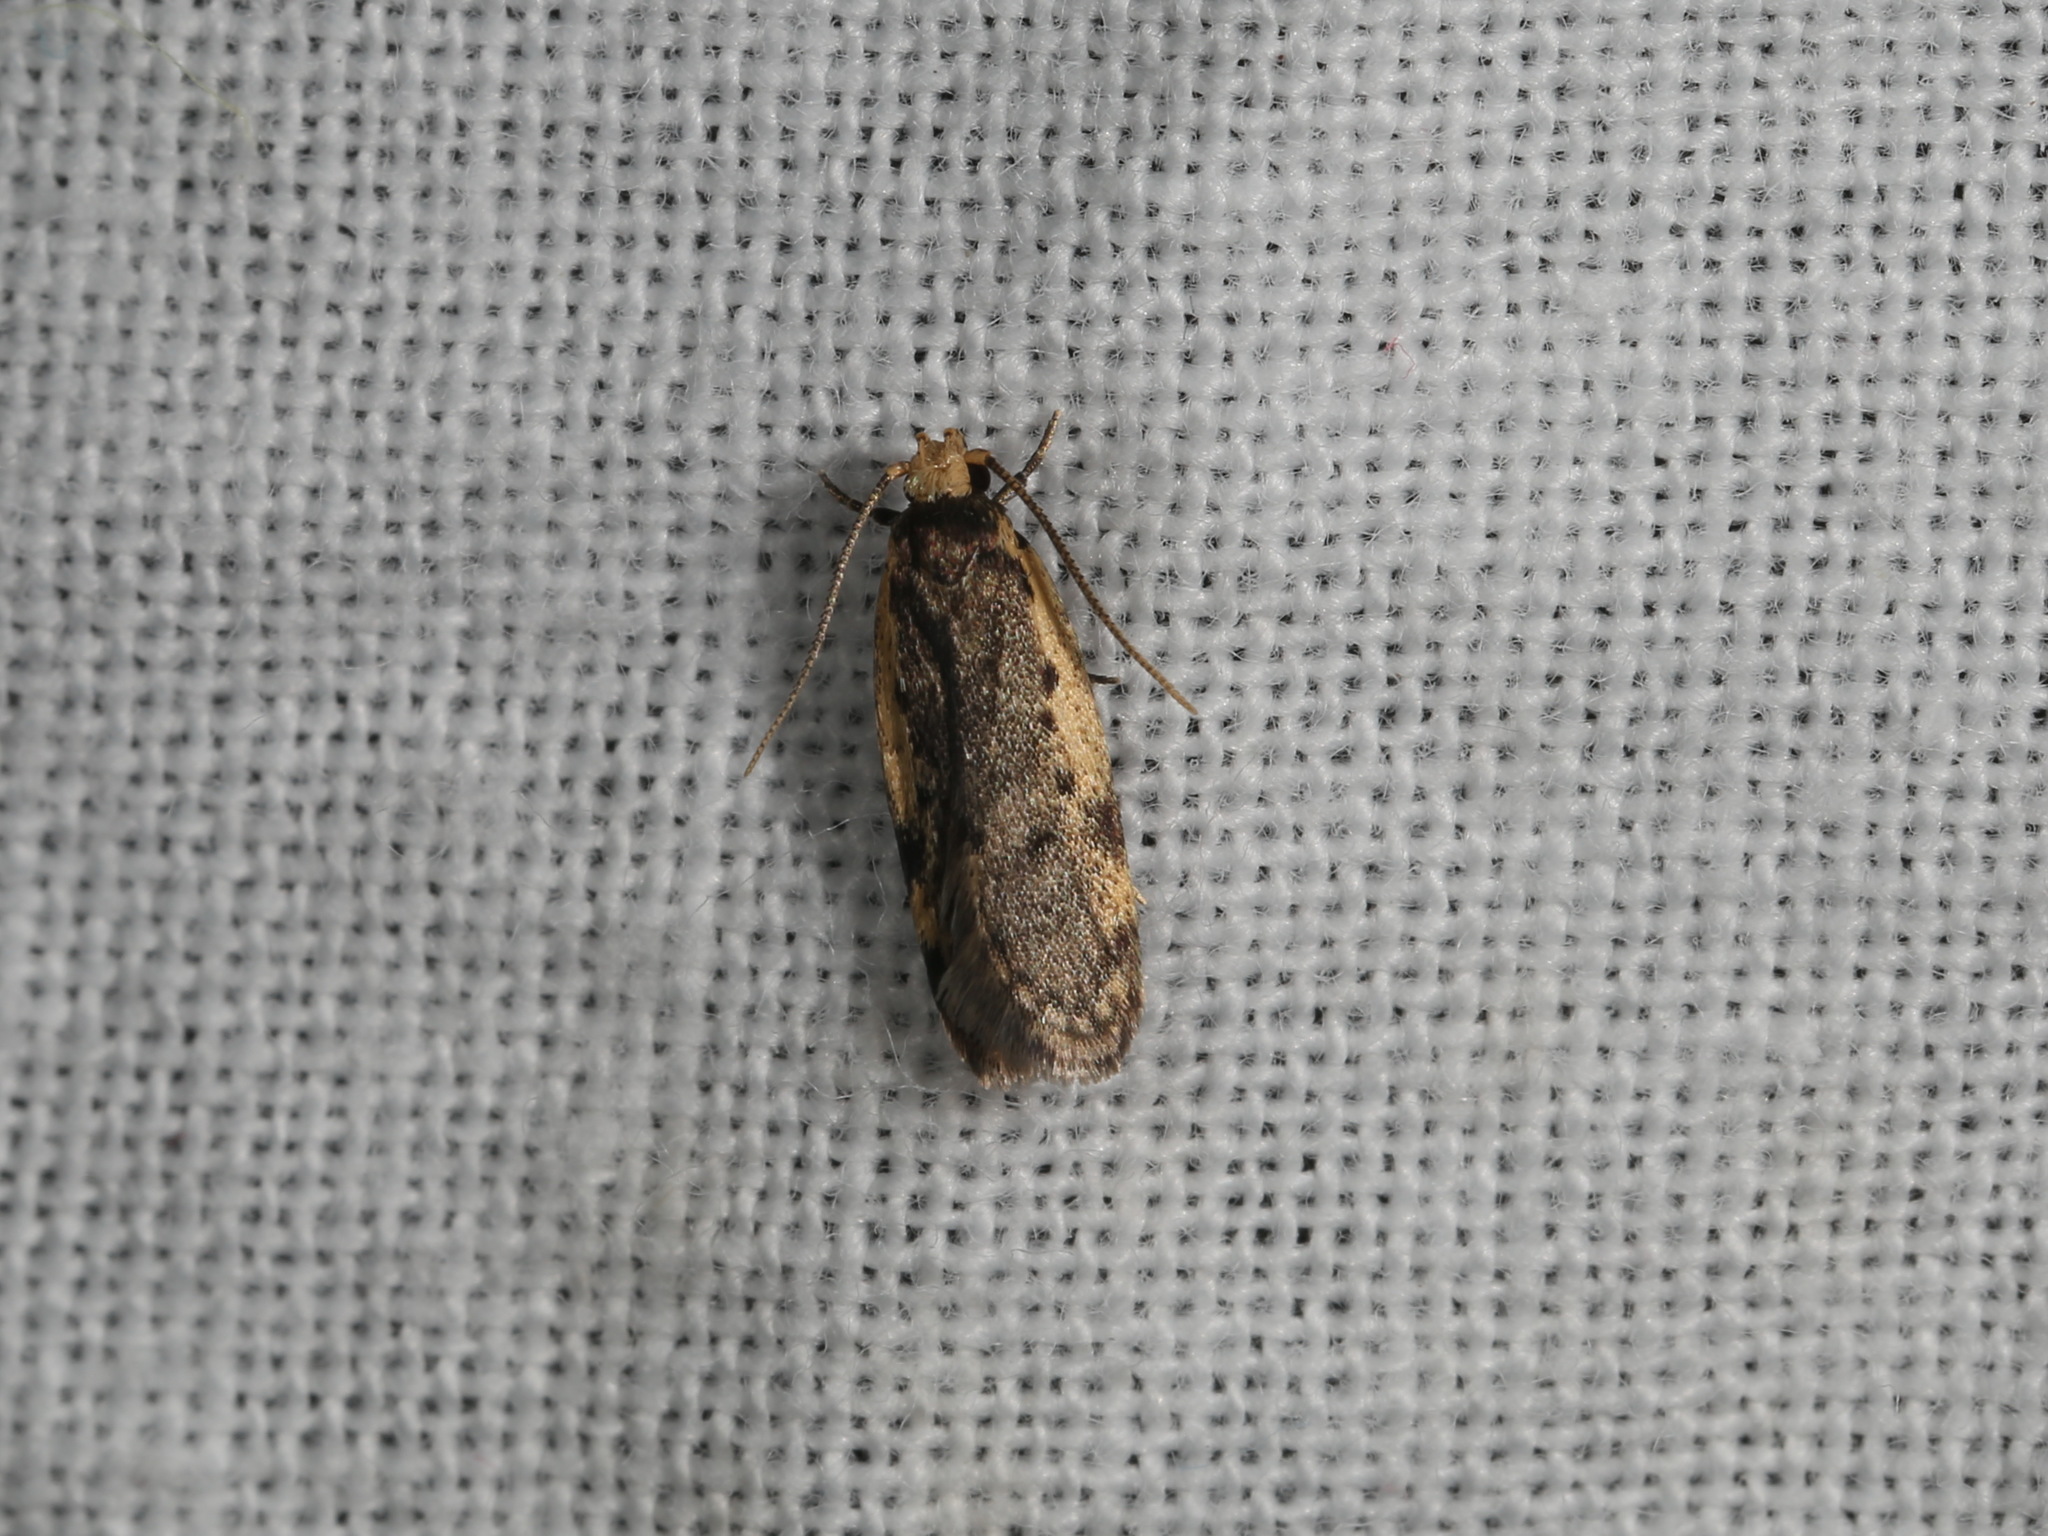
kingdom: Animalia
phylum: Arthropoda
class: Insecta
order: Lepidoptera
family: Oecophoridae
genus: Hoplostega
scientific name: Hoplostega ochroma
